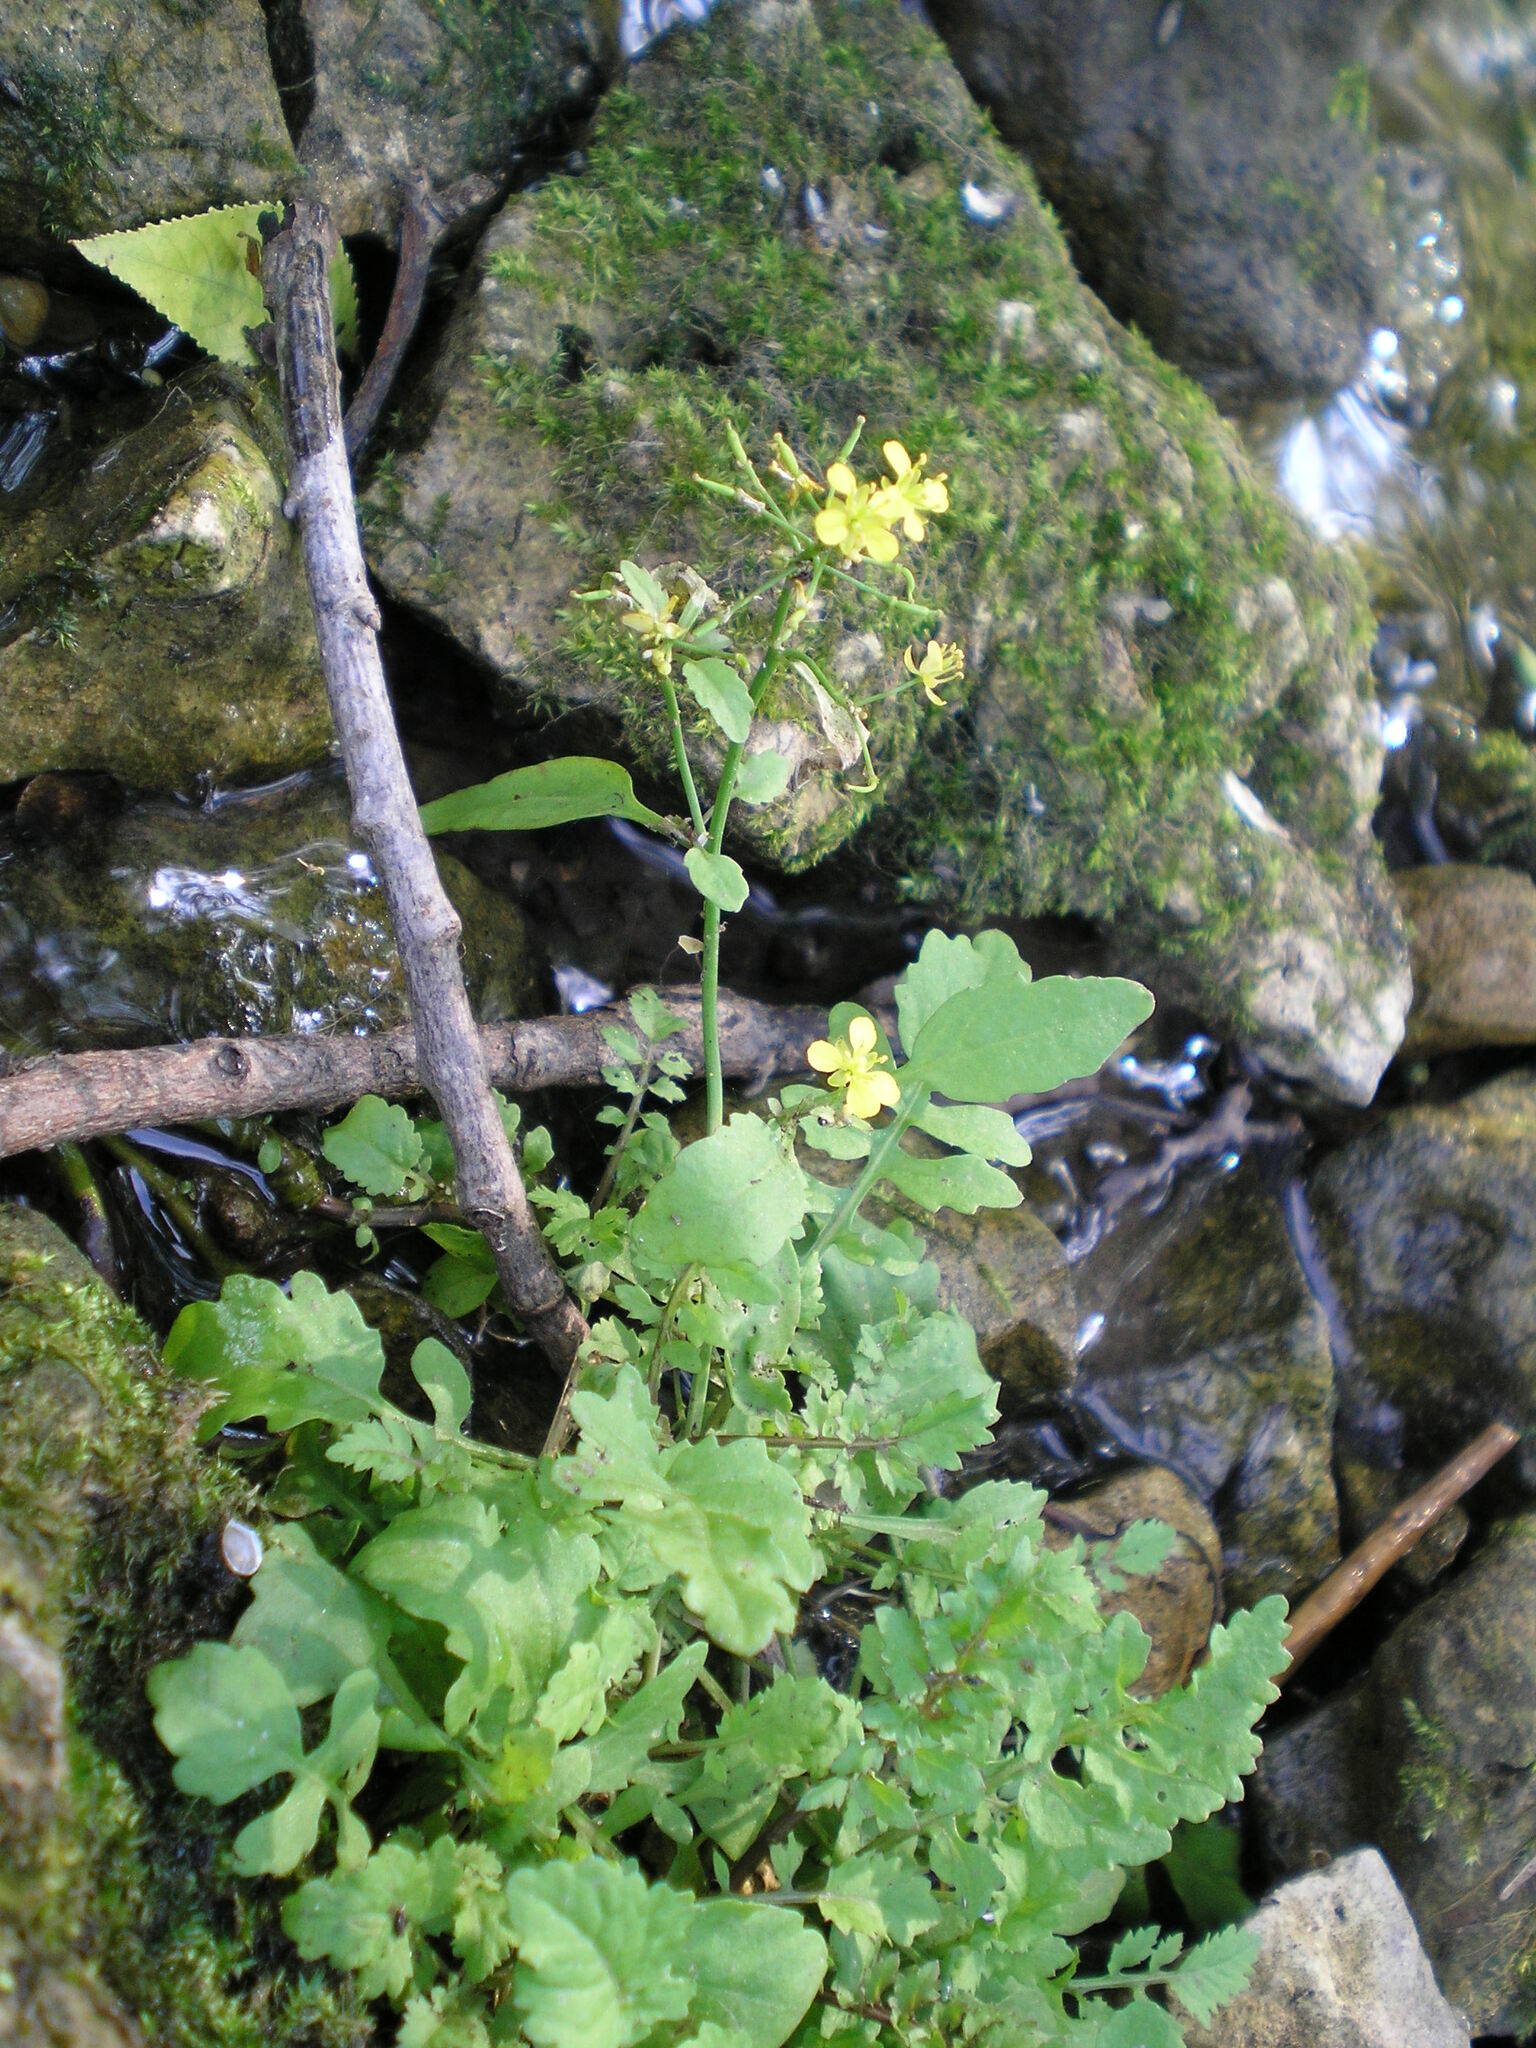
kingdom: Plantae
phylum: Tracheophyta
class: Magnoliopsida
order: Brassicales
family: Brassicaceae
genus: Rorippa
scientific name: Rorippa sylvestris
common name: Creeping yellowcress
